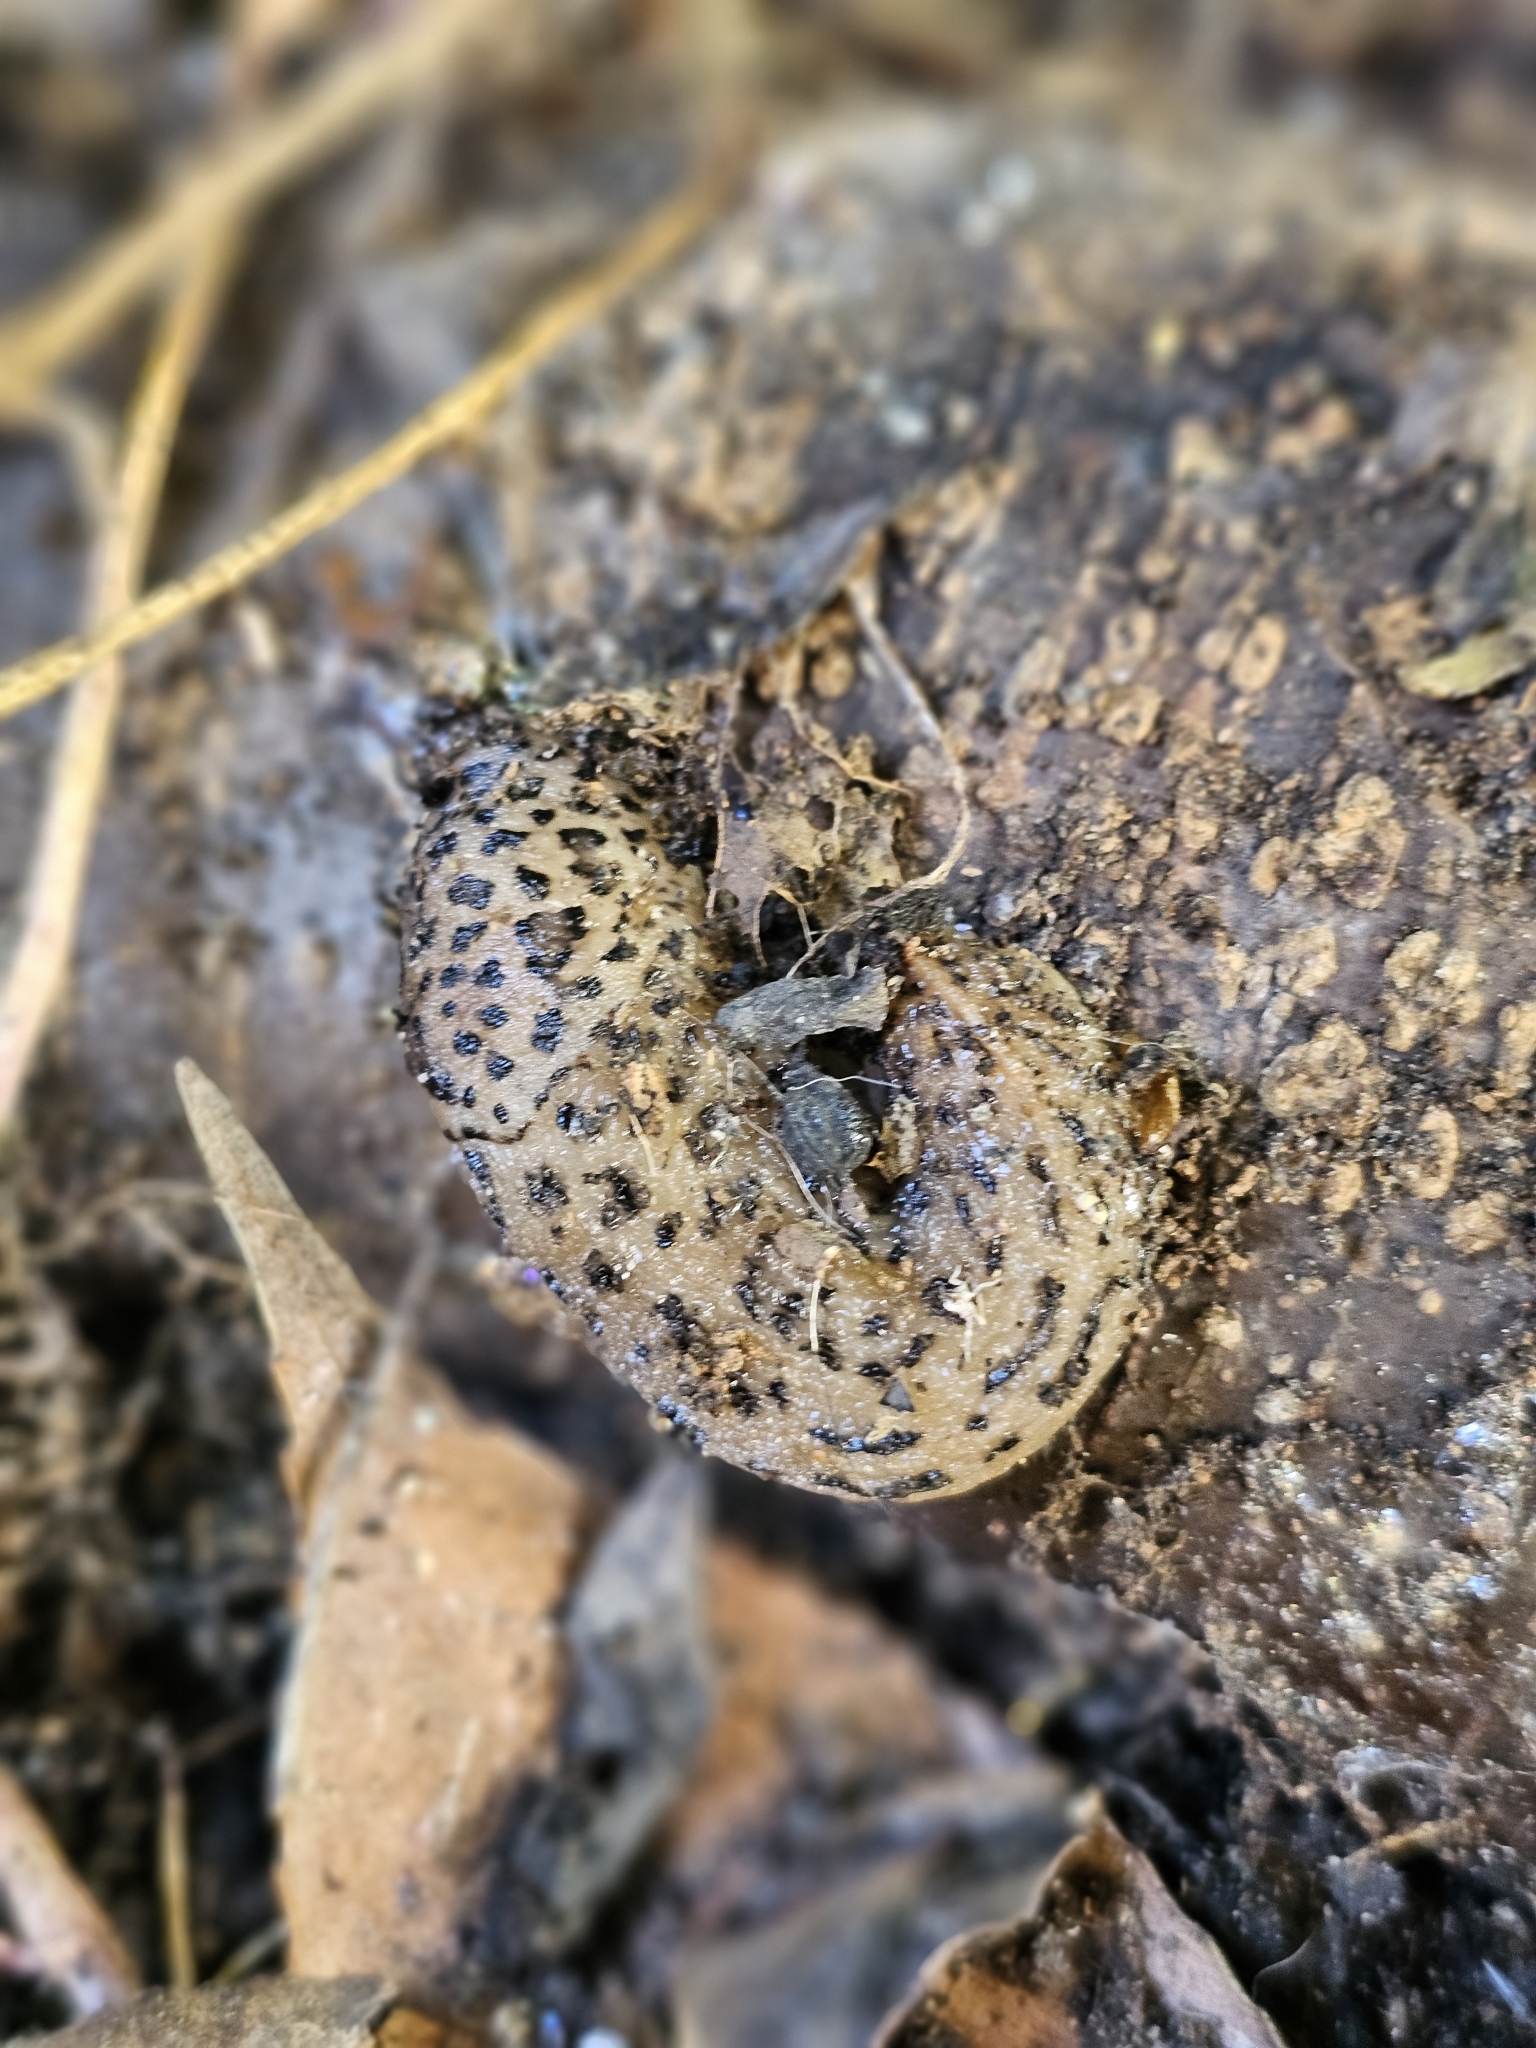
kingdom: Animalia
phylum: Mollusca
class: Gastropoda
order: Stylommatophora
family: Limacidae
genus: Limax
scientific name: Limax maximus
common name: Great grey slug
